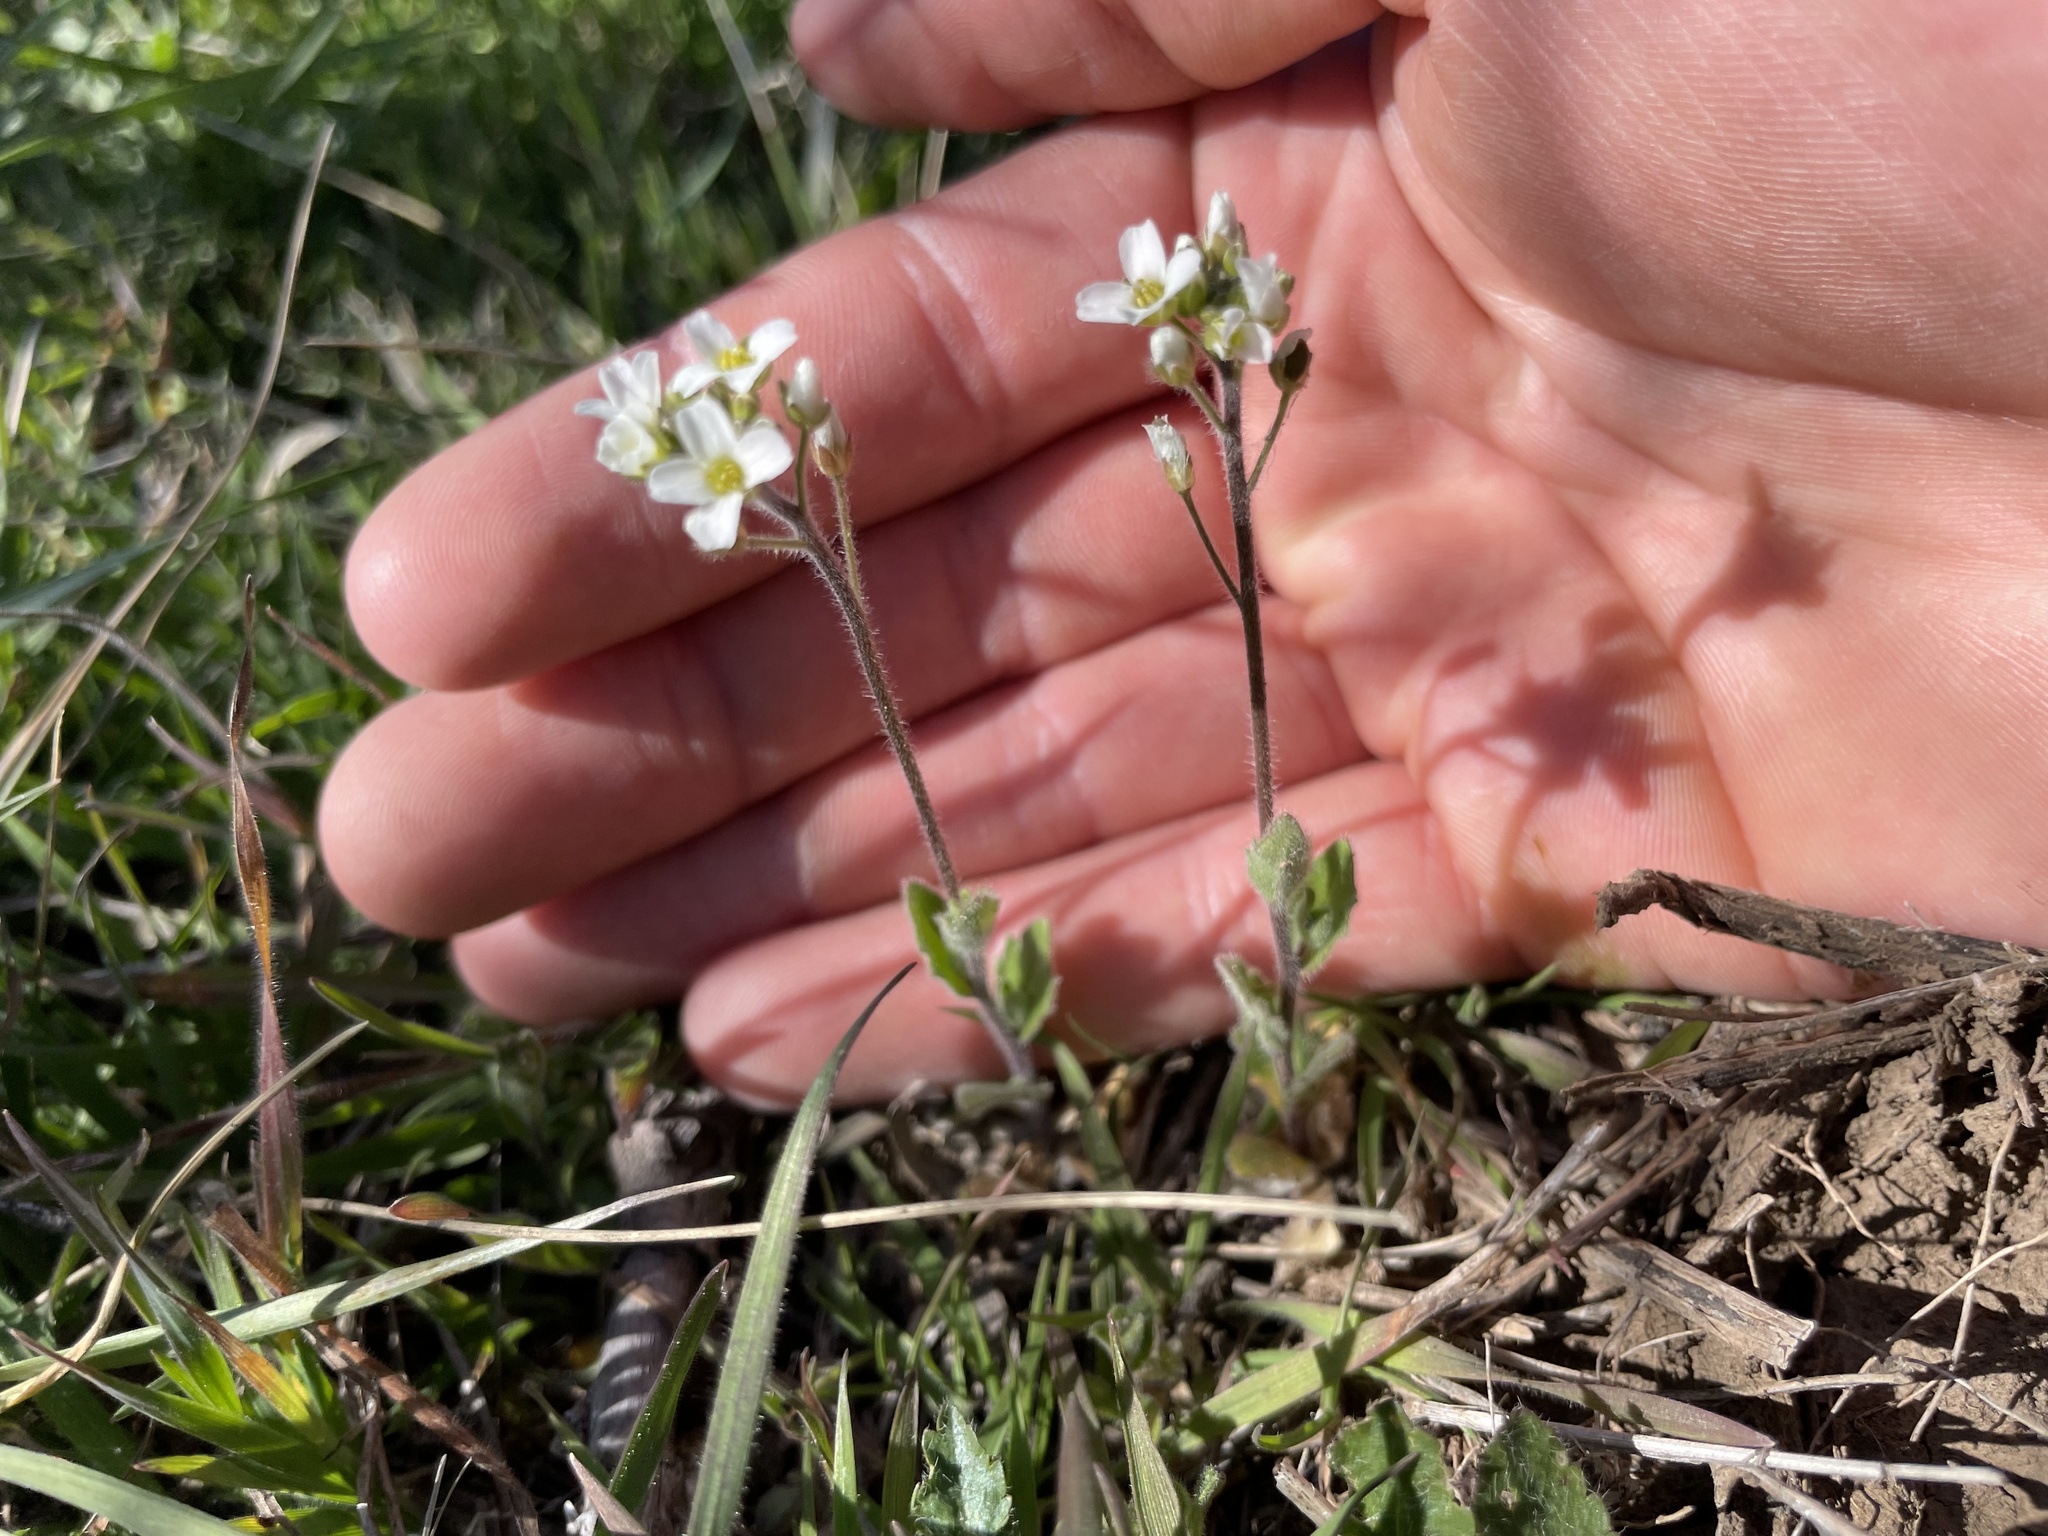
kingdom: Plantae
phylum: Tracheophyta
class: Magnoliopsida
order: Brassicales
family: Brassicaceae
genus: Tomostima
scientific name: Tomostima platycarpa
